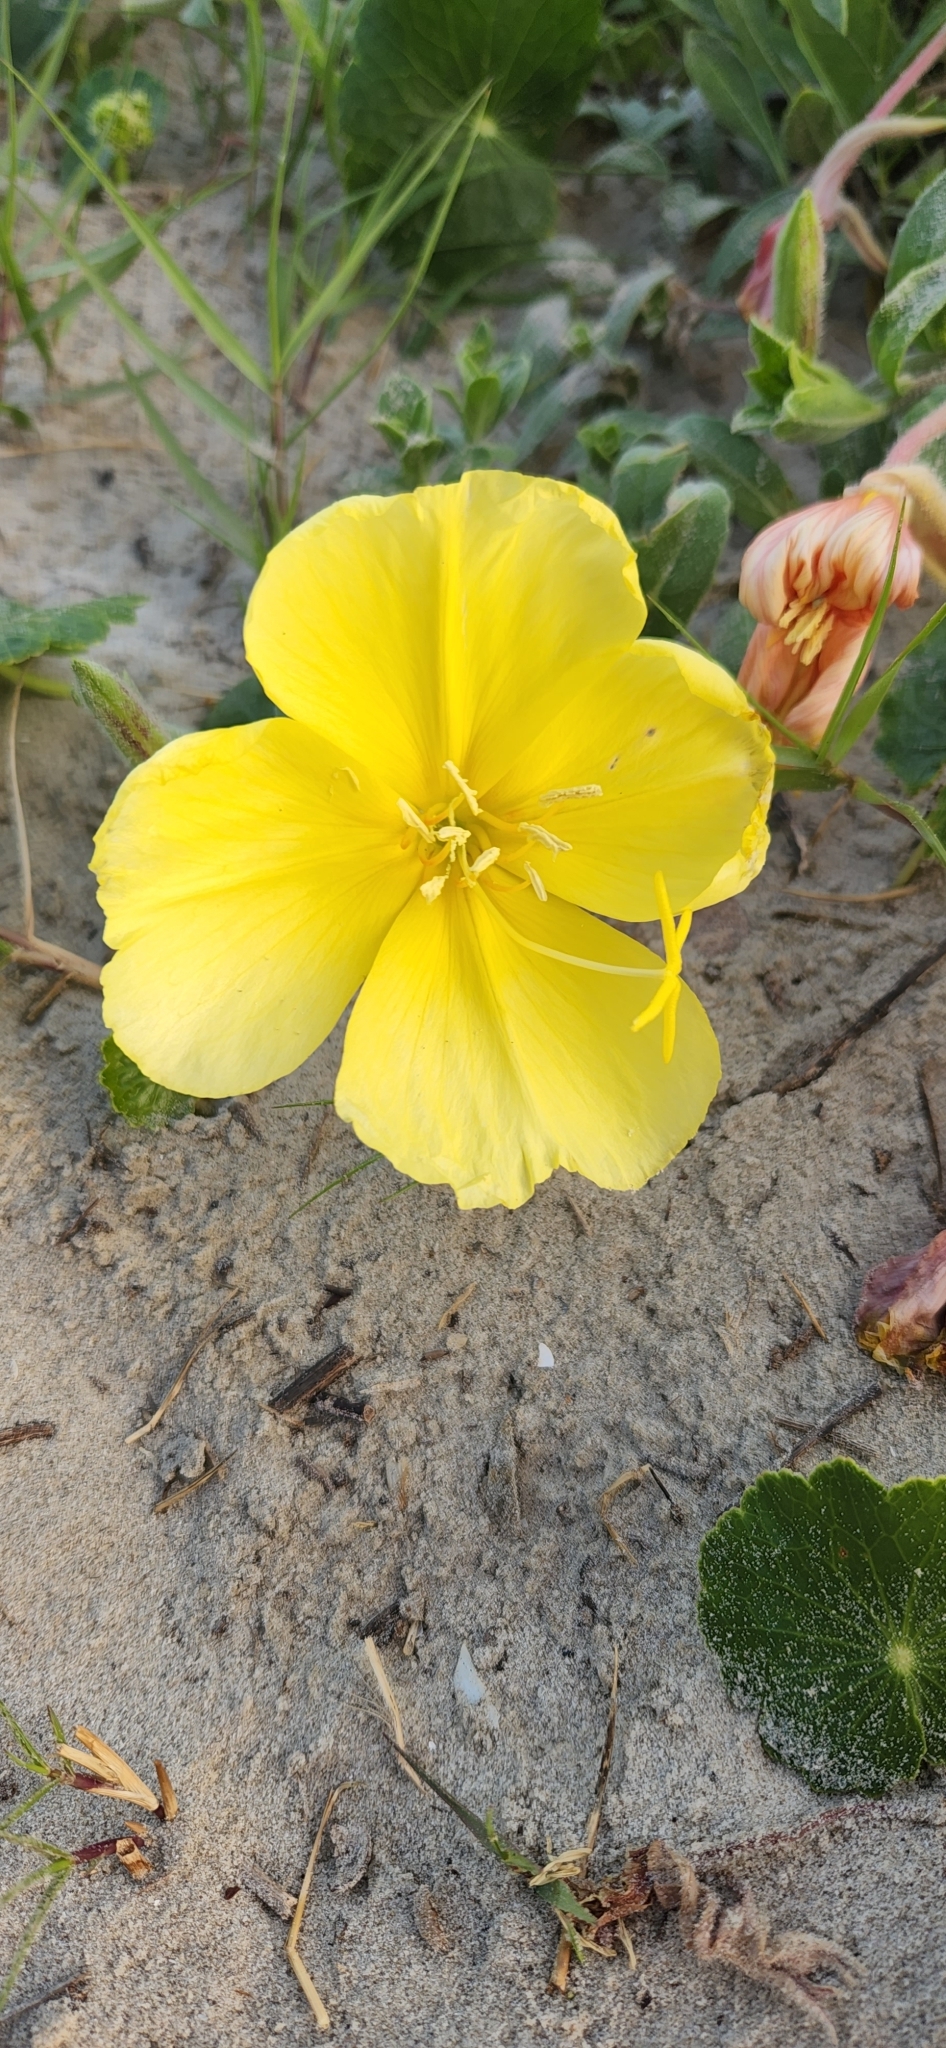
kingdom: Plantae
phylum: Tracheophyta
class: Magnoliopsida
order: Myrtales
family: Onagraceae
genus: Oenothera
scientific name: Oenothera drummondii
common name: Beach evening-primrose
